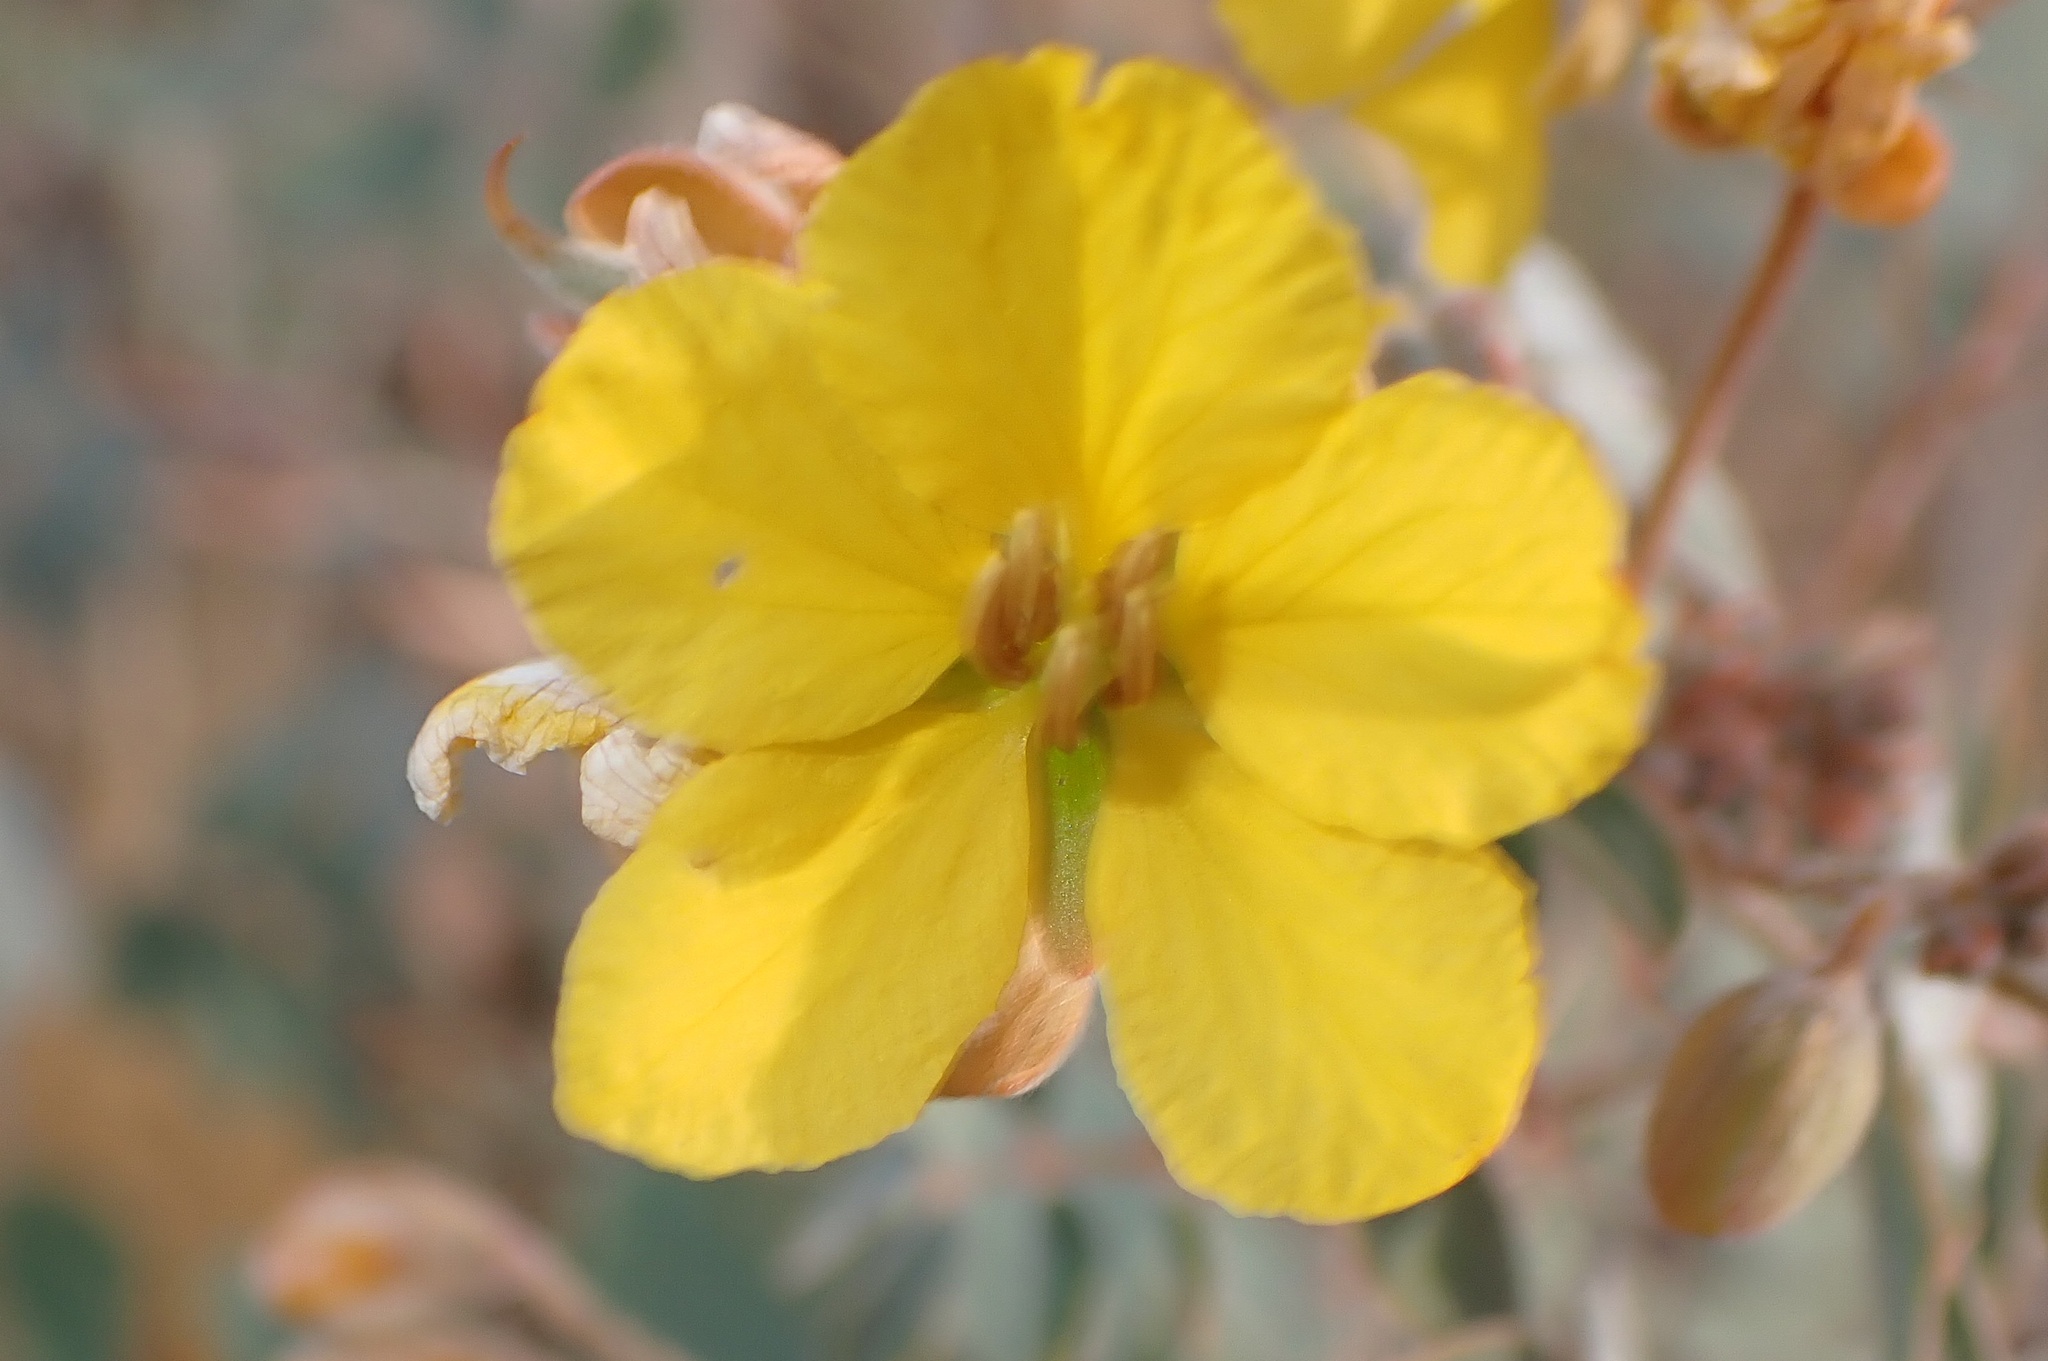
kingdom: Plantae
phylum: Tracheophyta
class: Magnoliopsida
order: Fabales
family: Fabaceae
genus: Senna
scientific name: Senna covesii
